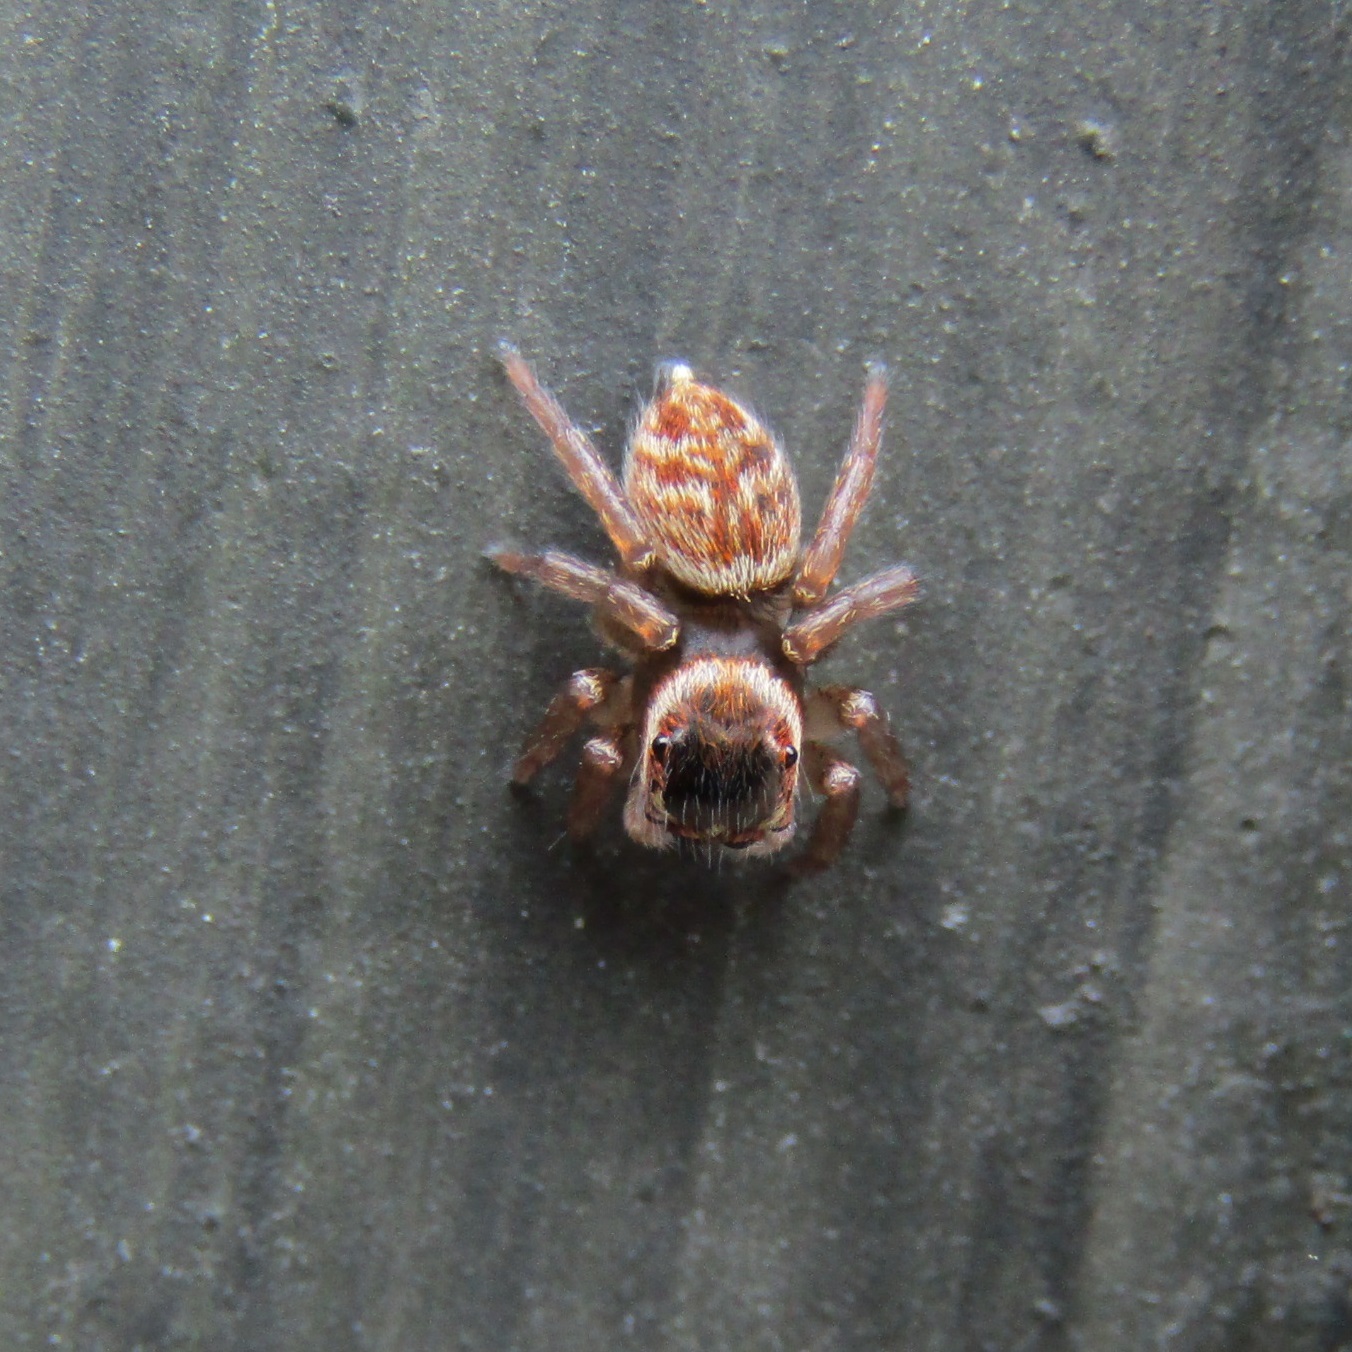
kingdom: Animalia
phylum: Arthropoda
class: Arachnida
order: Araneae
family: Salticidae
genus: Maratus
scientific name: Maratus griseus
